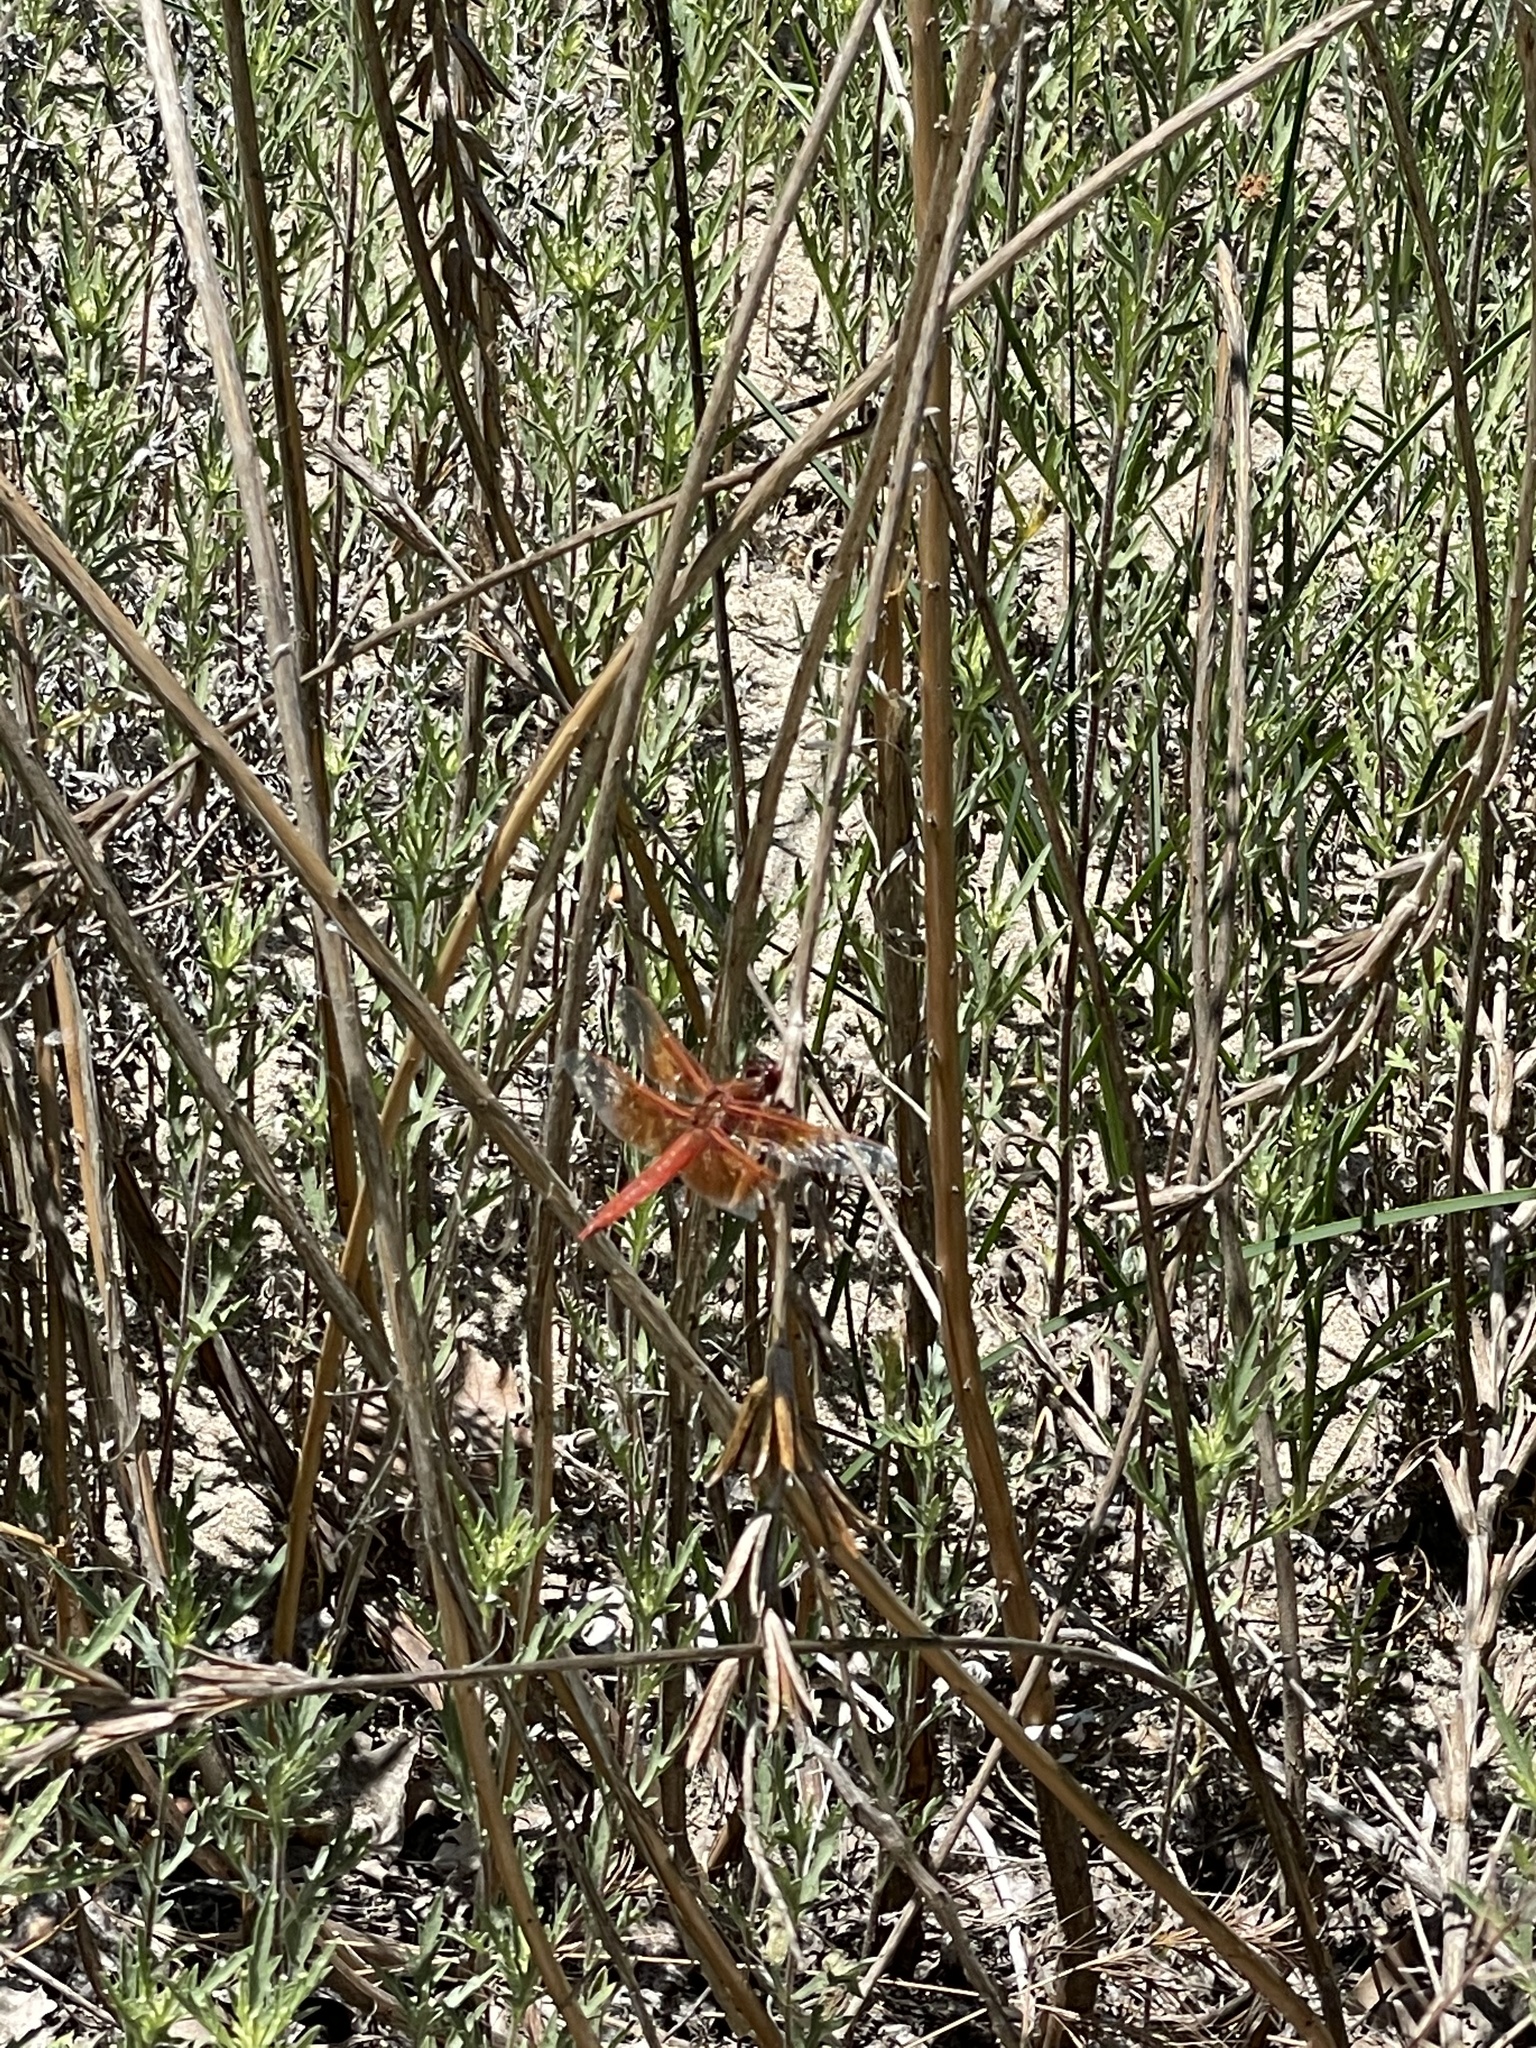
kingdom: Animalia
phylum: Arthropoda
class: Insecta
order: Odonata
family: Libellulidae
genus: Libellula
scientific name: Libellula saturata
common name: Flame skimmer
